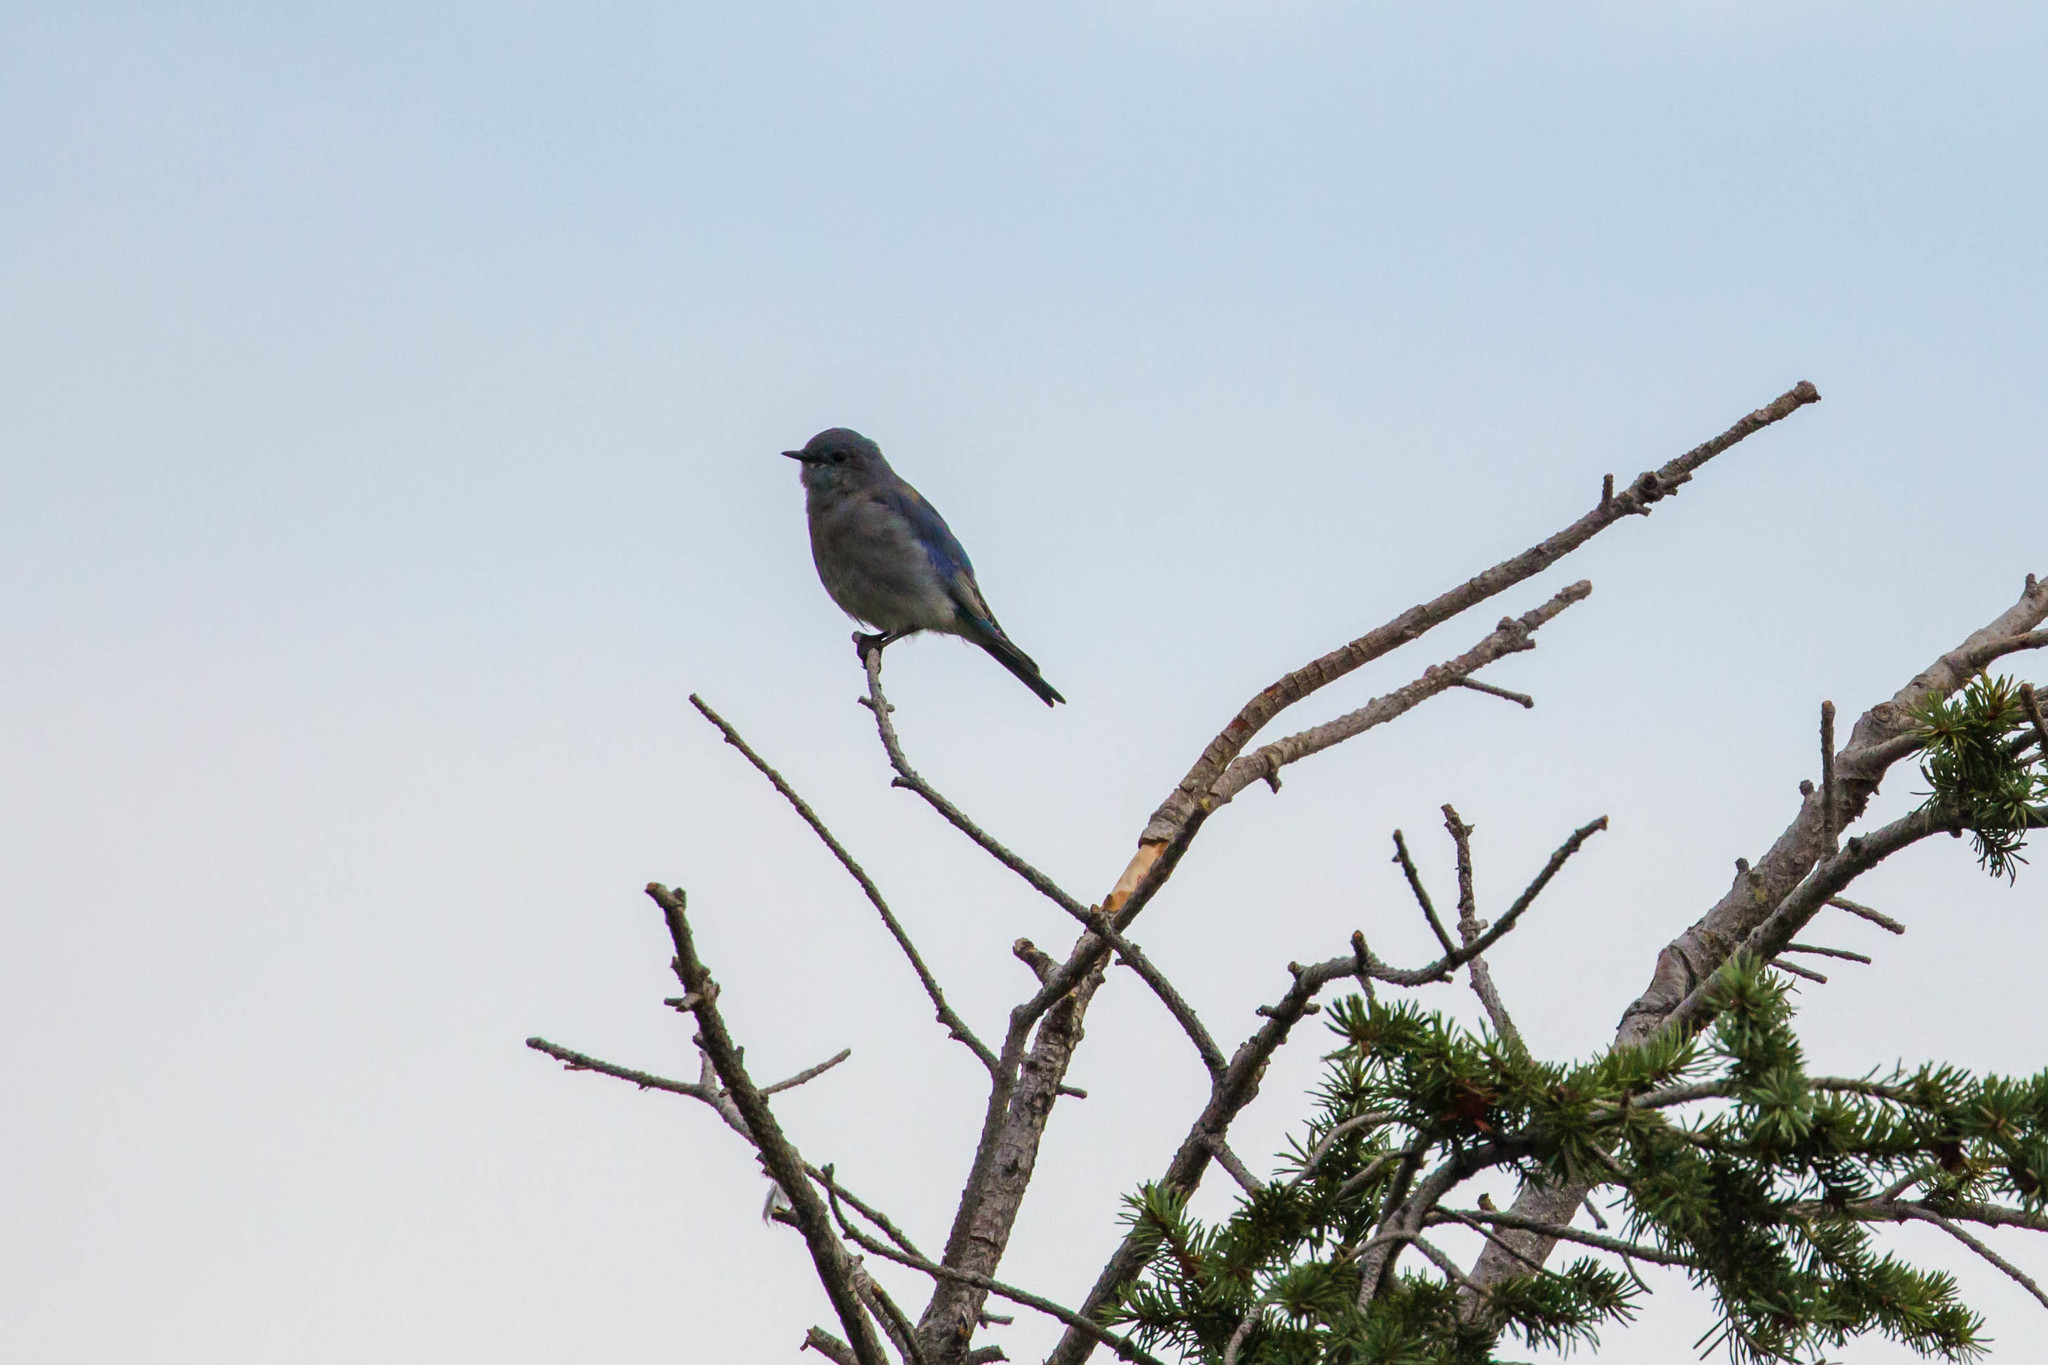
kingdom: Animalia
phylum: Chordata
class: Aves
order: Passeriformes
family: Turdidae
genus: Sialia
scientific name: Sialia currucoides
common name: Mountain bluebird
